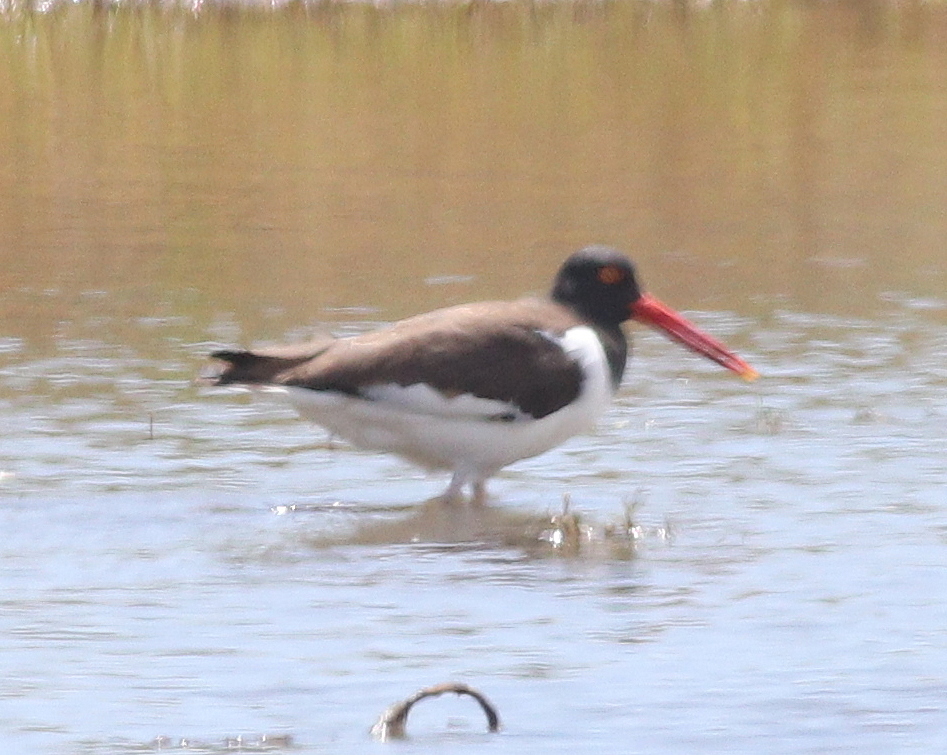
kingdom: Animalia
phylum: Chordata
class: Aves
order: Charadriiformes
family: Haematopodidae
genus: Haematopus
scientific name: Haematopus palliatus
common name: American oystercatcher
